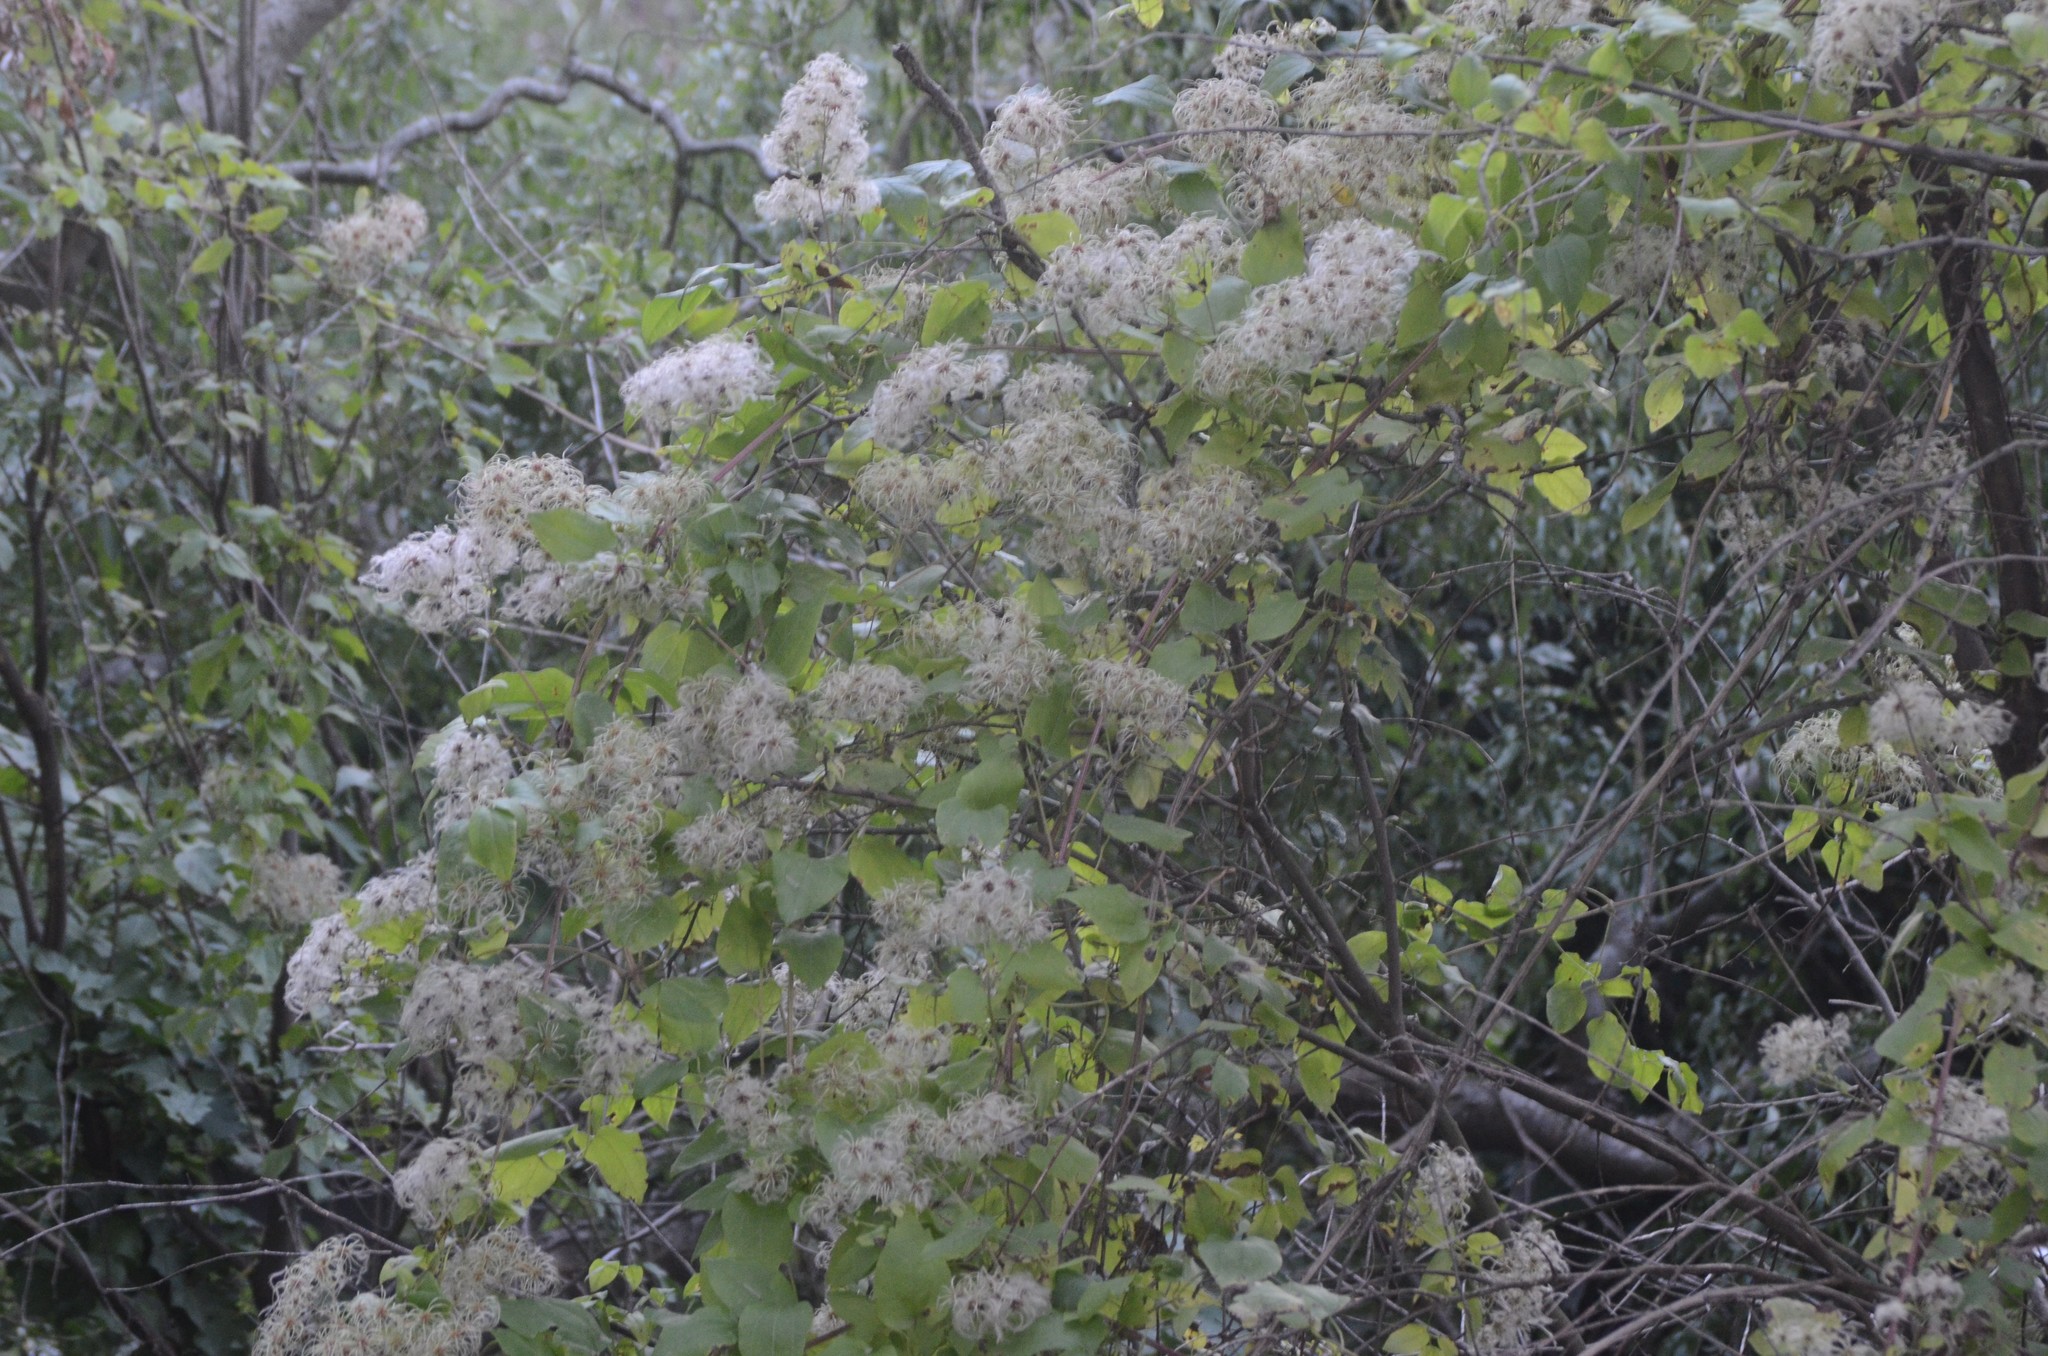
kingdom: Plantae
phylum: Tracheophyta
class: Magnoliopsida
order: Ranunculales
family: Ranunculaceae
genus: Clematis
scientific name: Clematis vitalba
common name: Evergreen clematis
